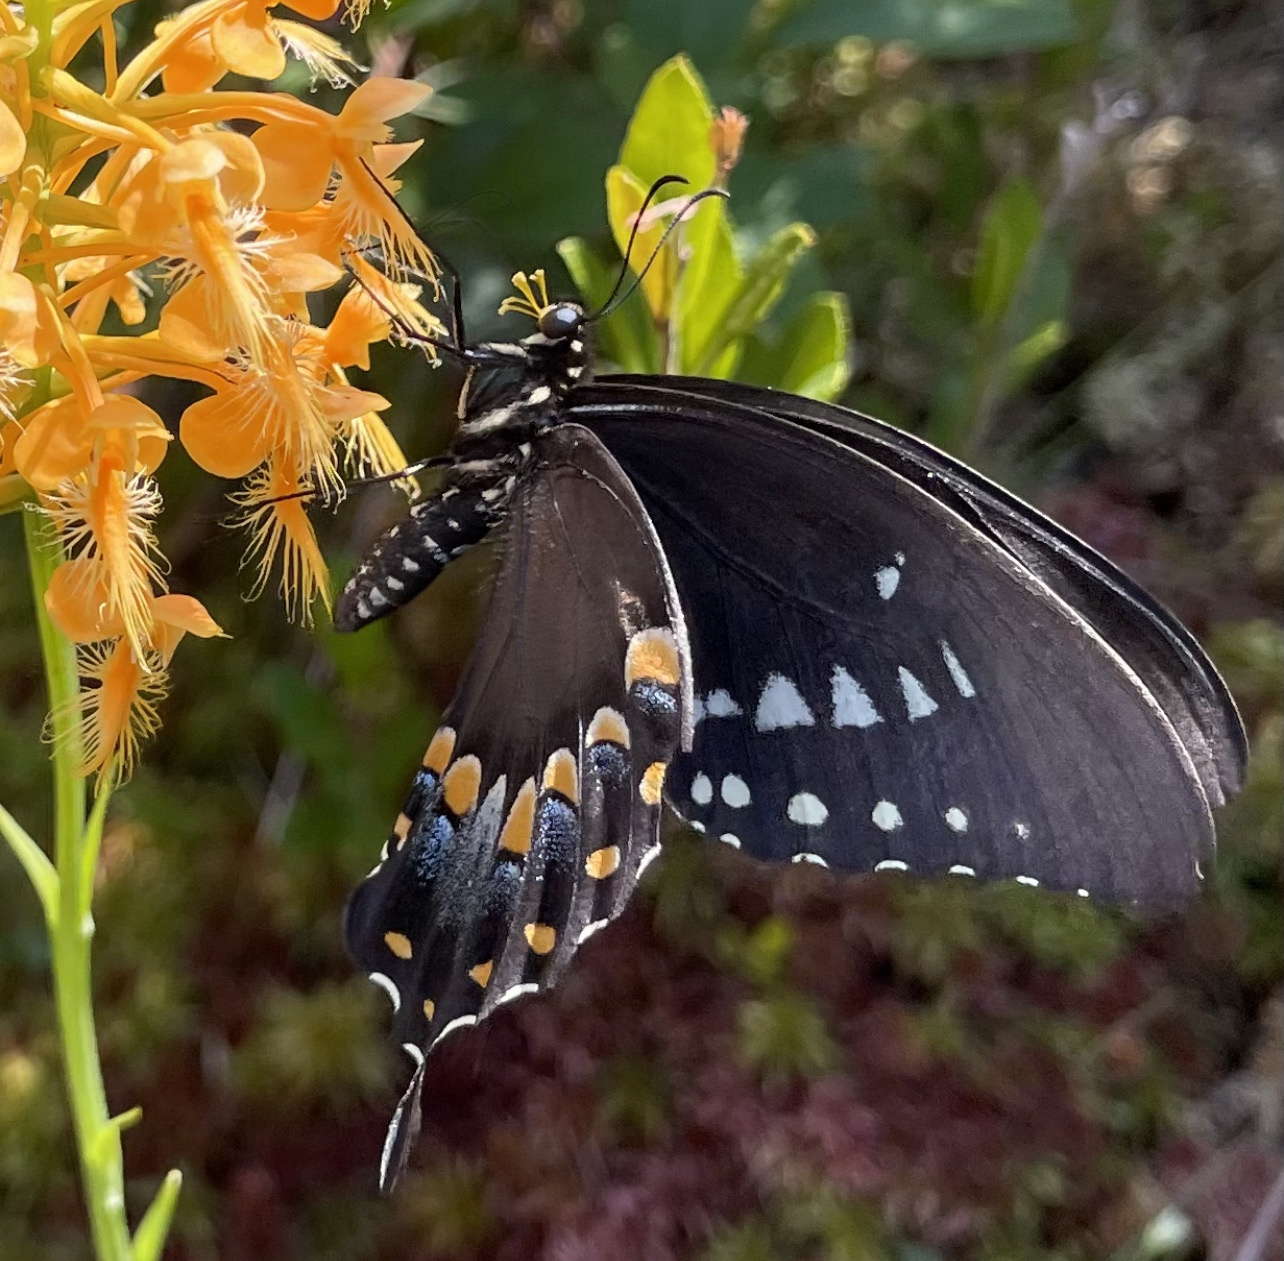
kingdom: Animalia
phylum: Arthropoda
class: Insecta
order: Lepidoptera
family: Papilionidae
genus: Papilio
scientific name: Papilio troilus
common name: Spicebush swallowtail
